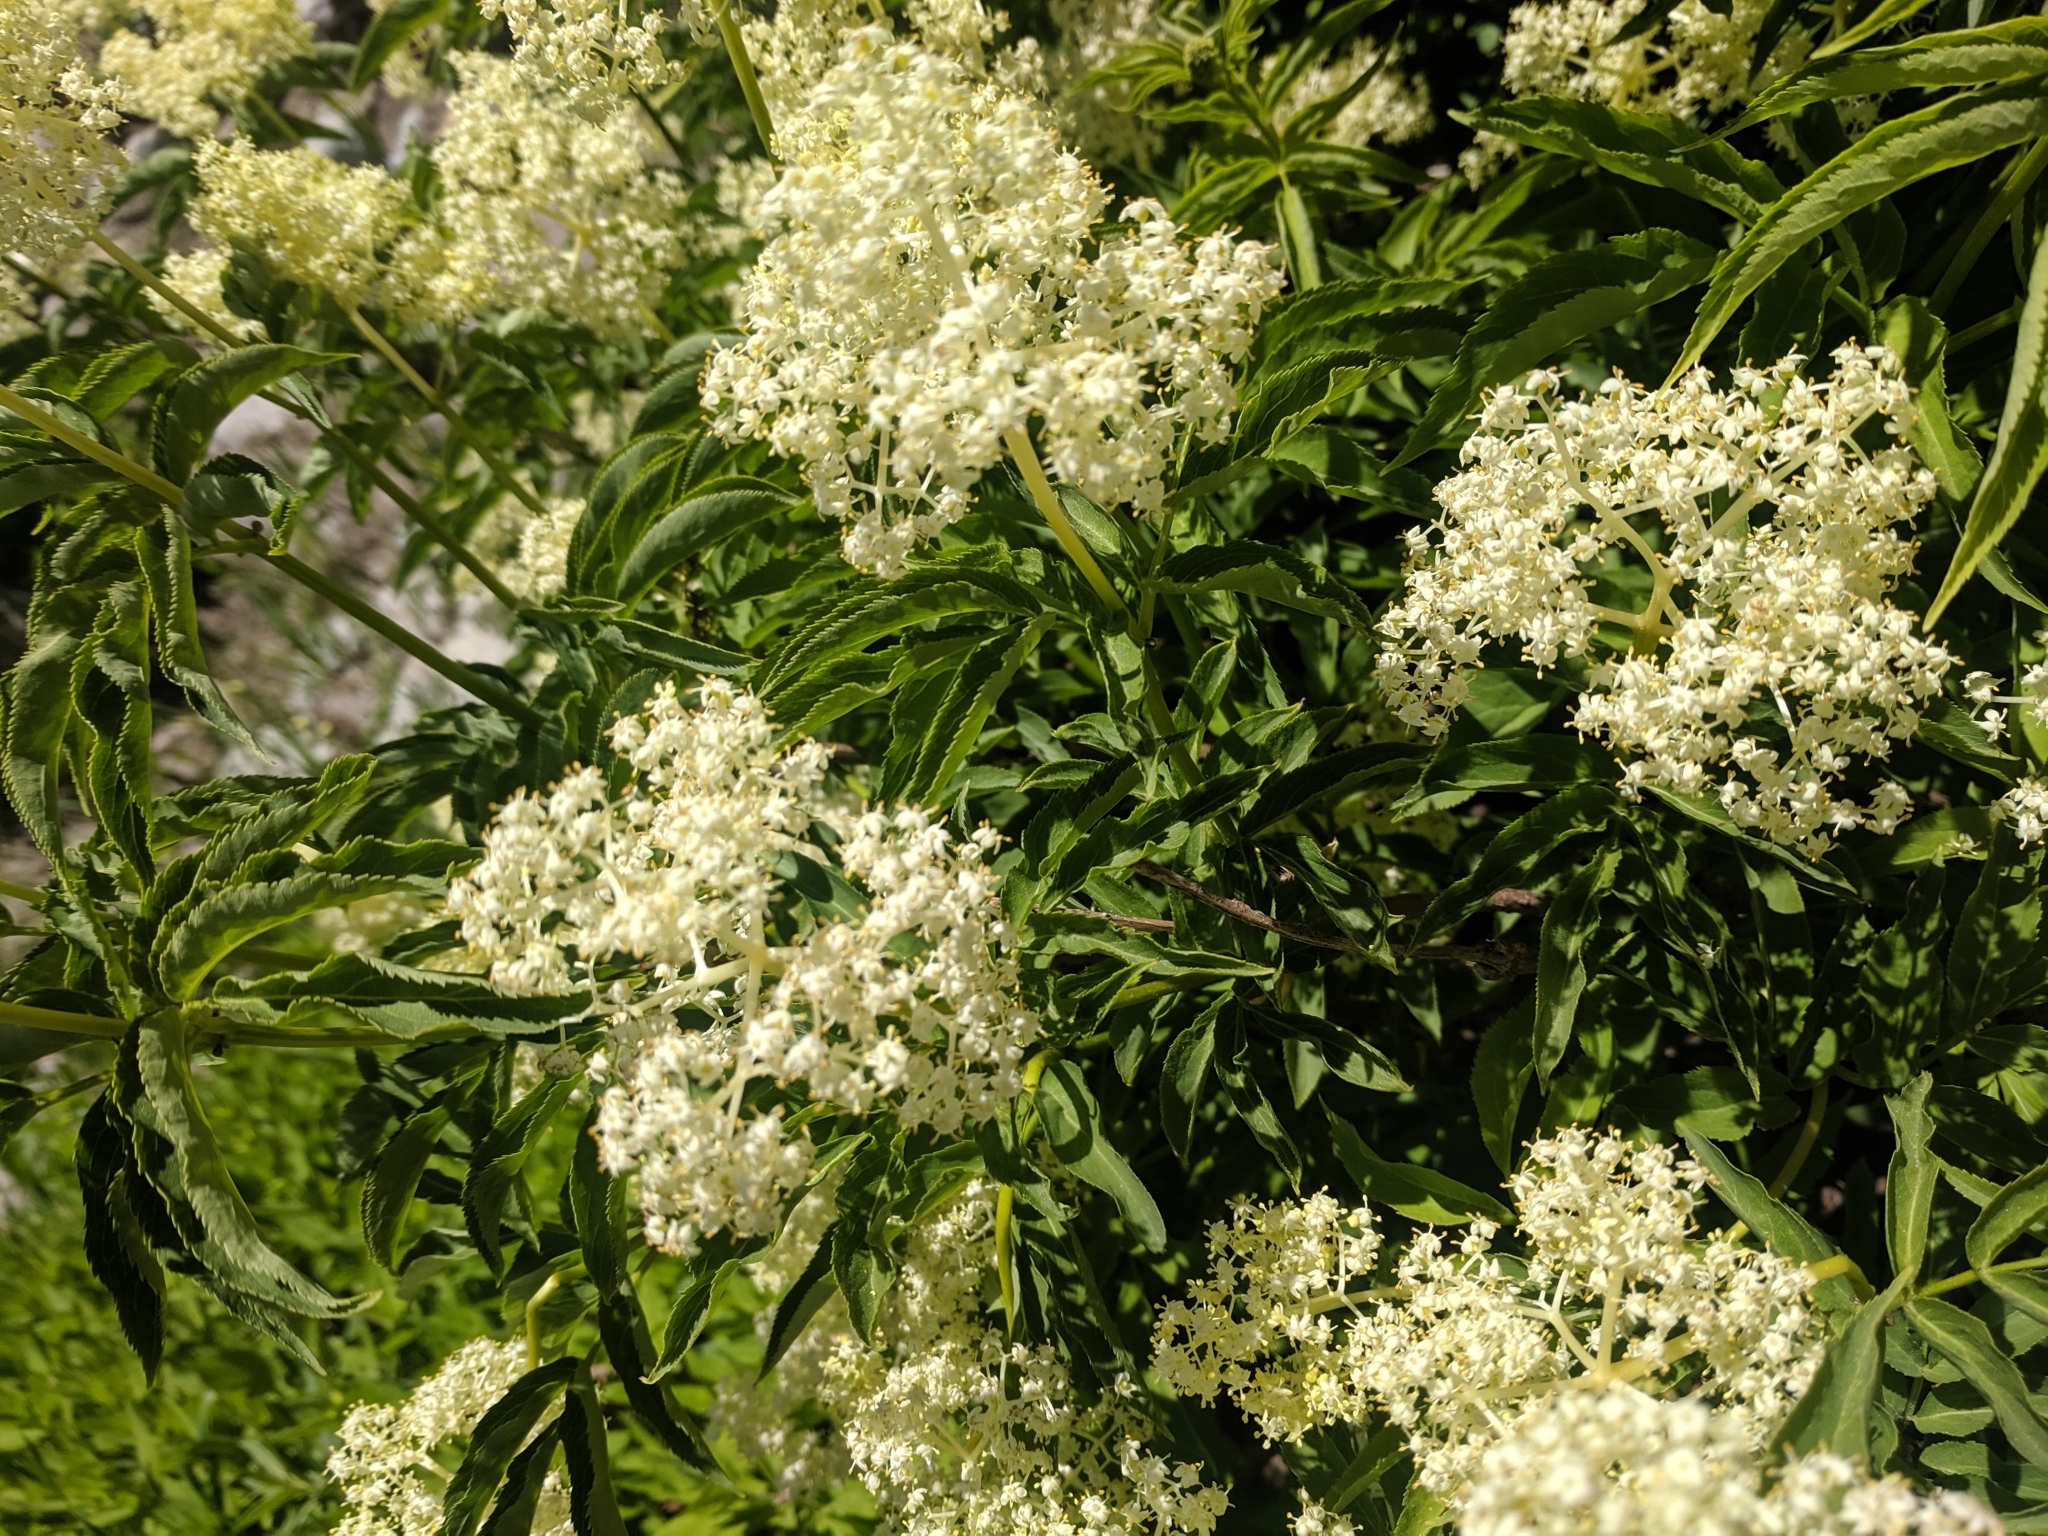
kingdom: Plantae
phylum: Tracheophyta
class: Magnoliopsida
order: Dipsacales
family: Viburnaceae
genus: Sambucus
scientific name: Sambucus racemosa
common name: Red-berried elder
